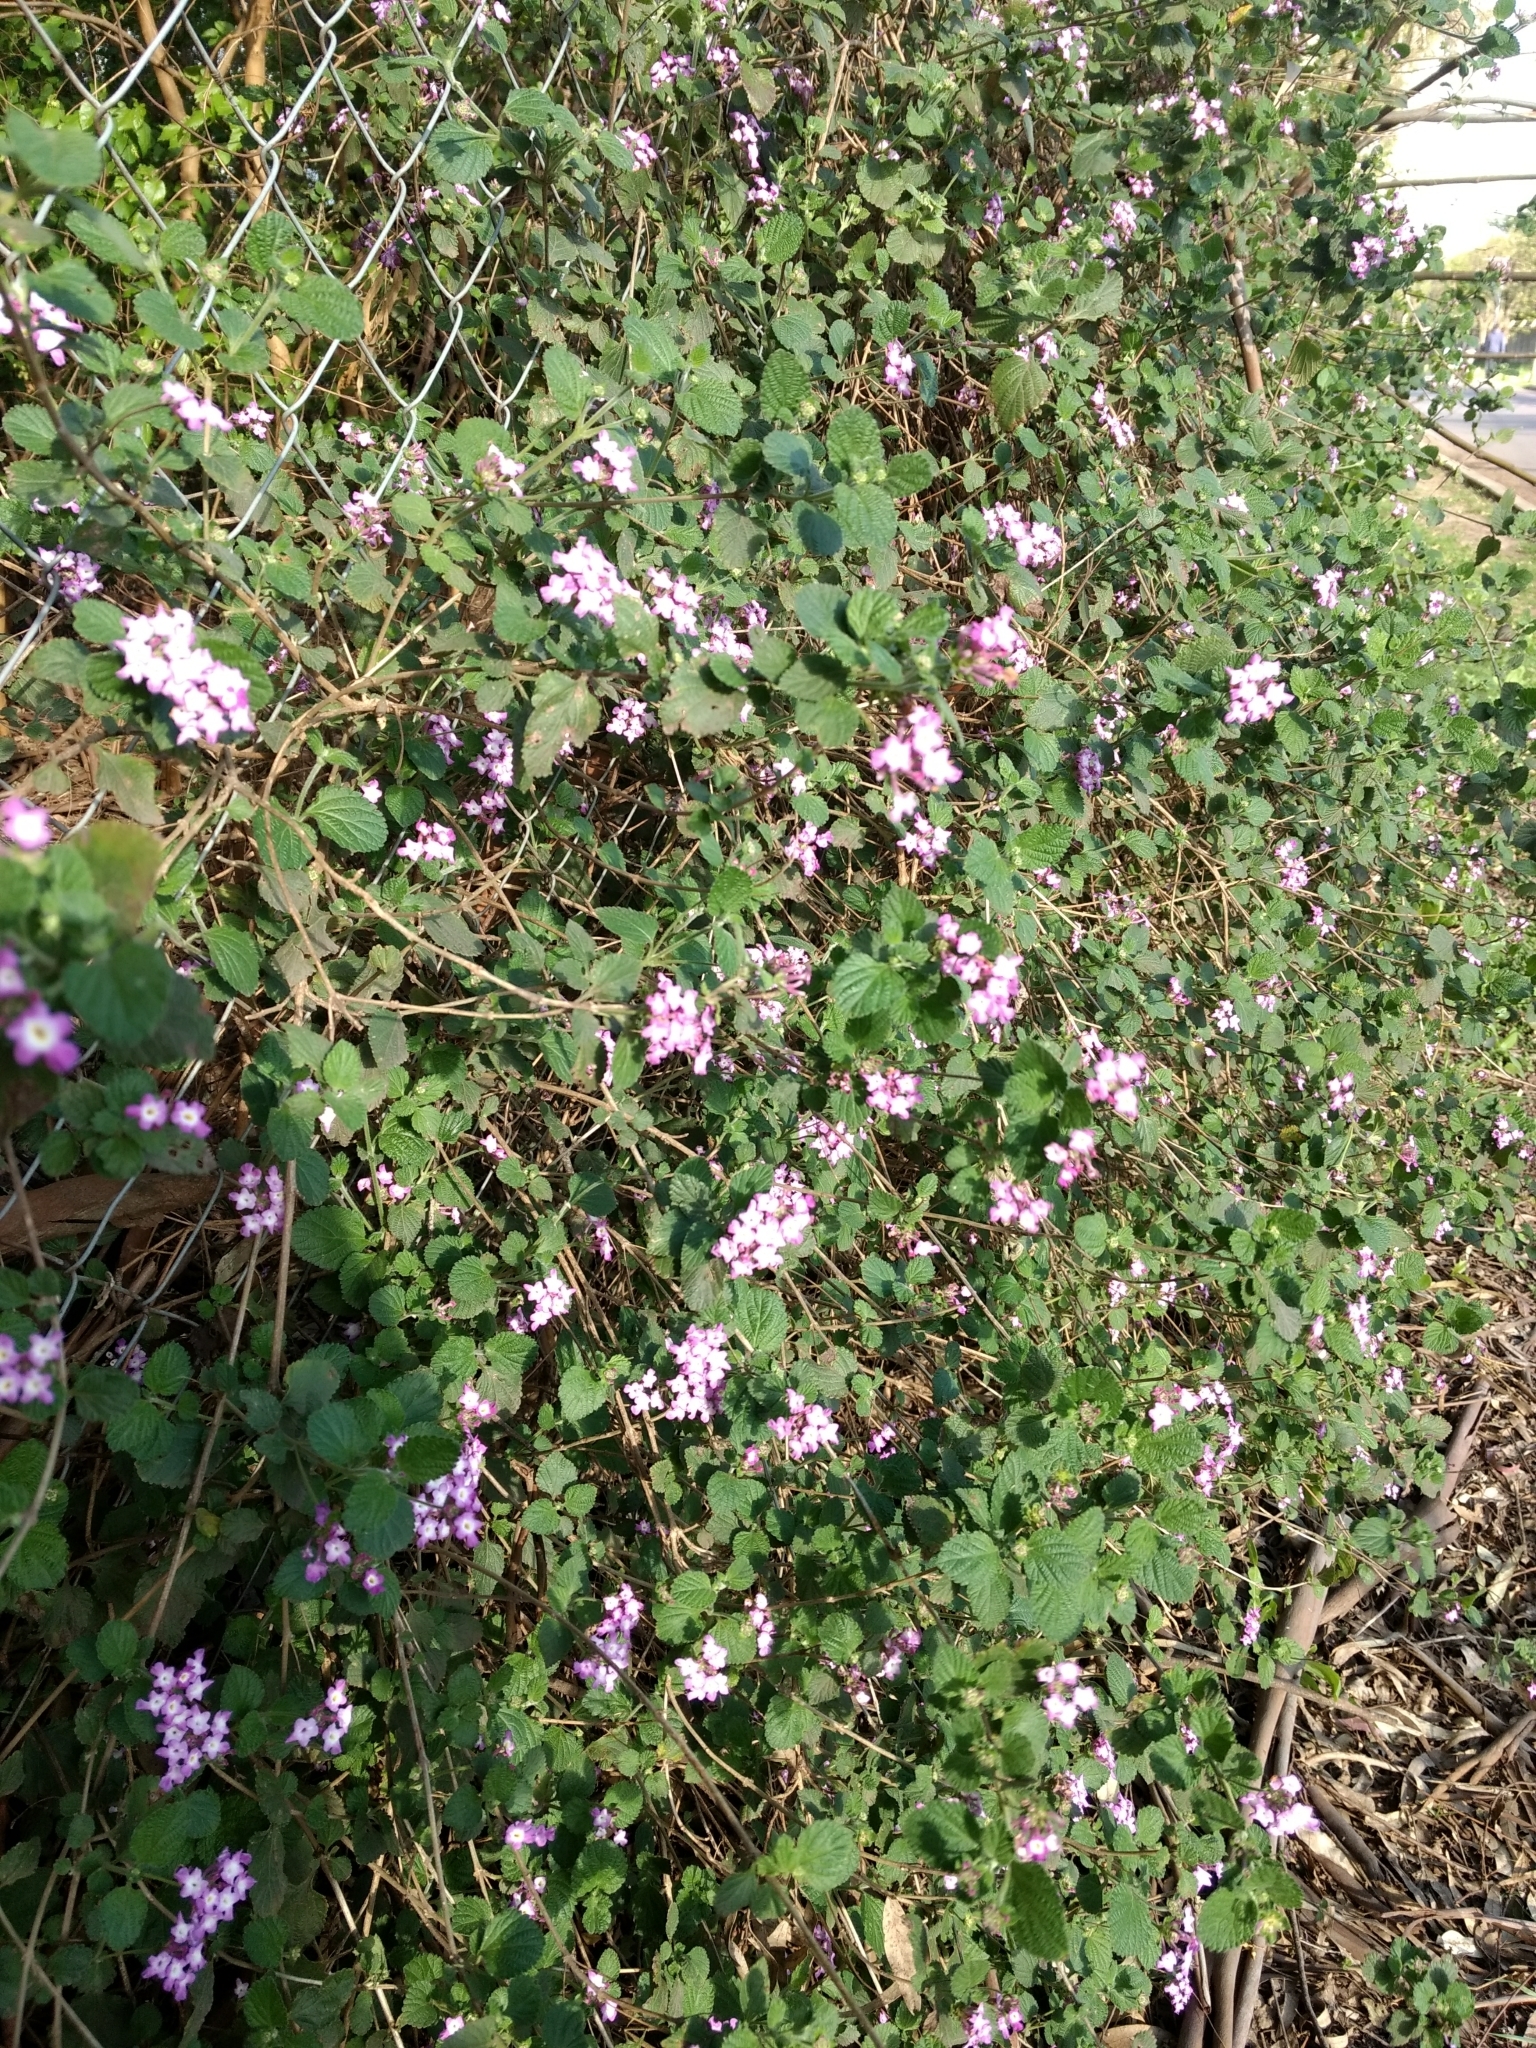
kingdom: Plantae
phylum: Tracheophyta
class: Magnoliopsida
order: Lamiales
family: Verbenaceae
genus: Lantana
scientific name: Lantana montevidensis
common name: Trailing shrubverbena
